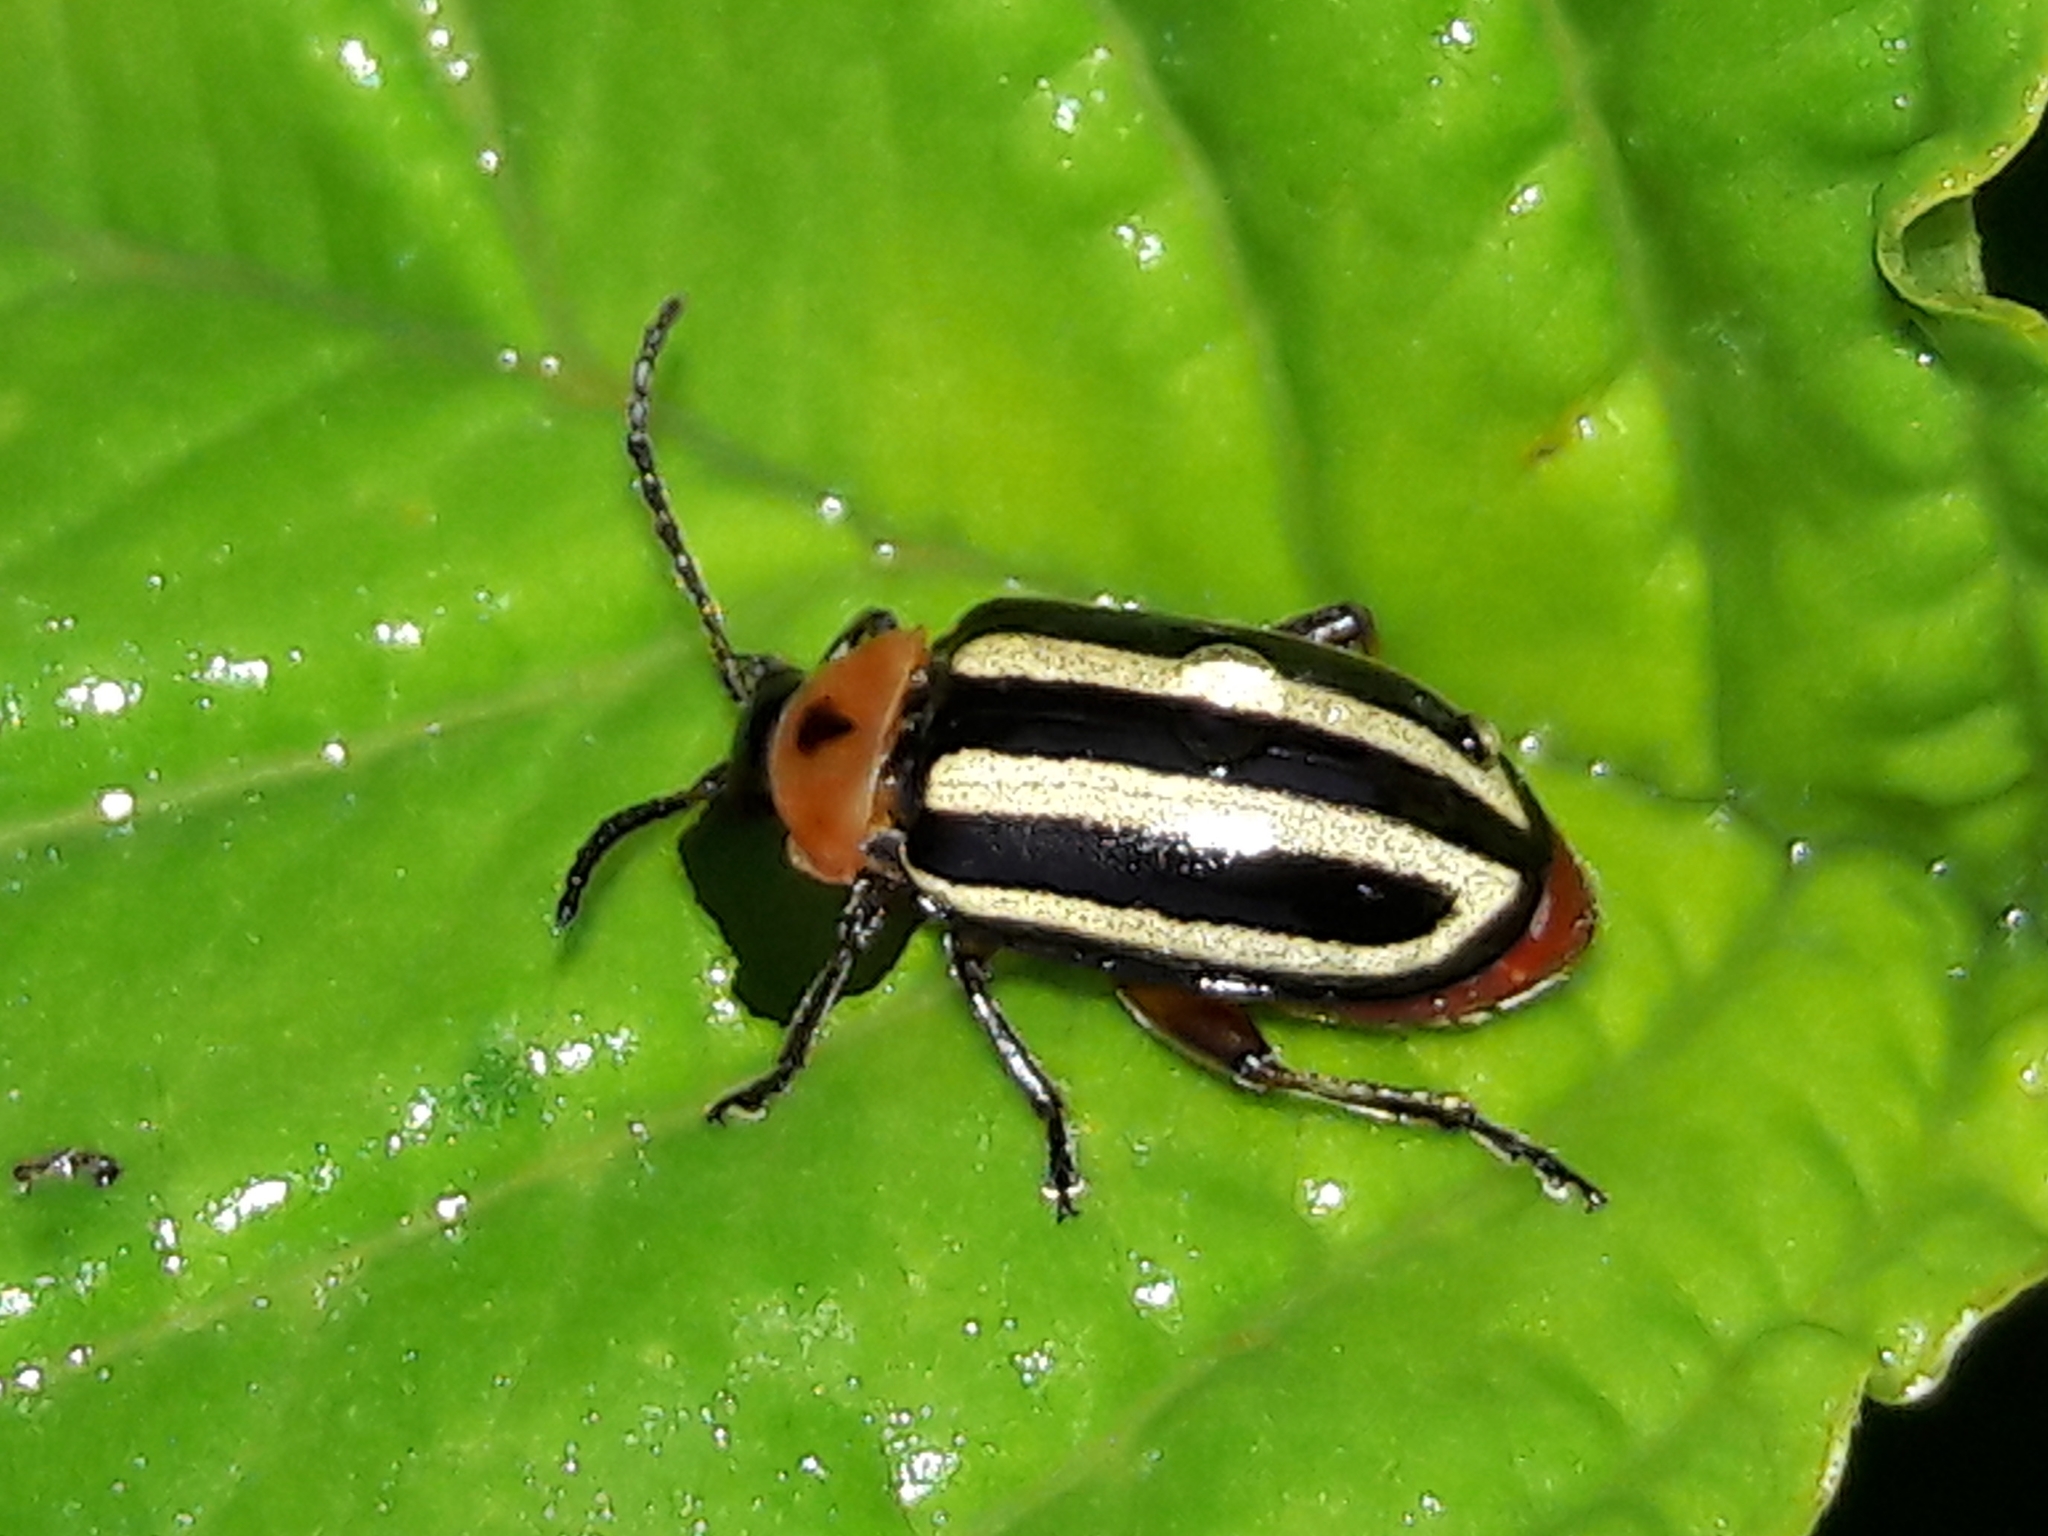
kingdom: Animalia
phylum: Arthropoda
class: Insecta
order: Coleoptera
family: Chrysomelidae
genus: Disonycha
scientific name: Disonycha glabrata
